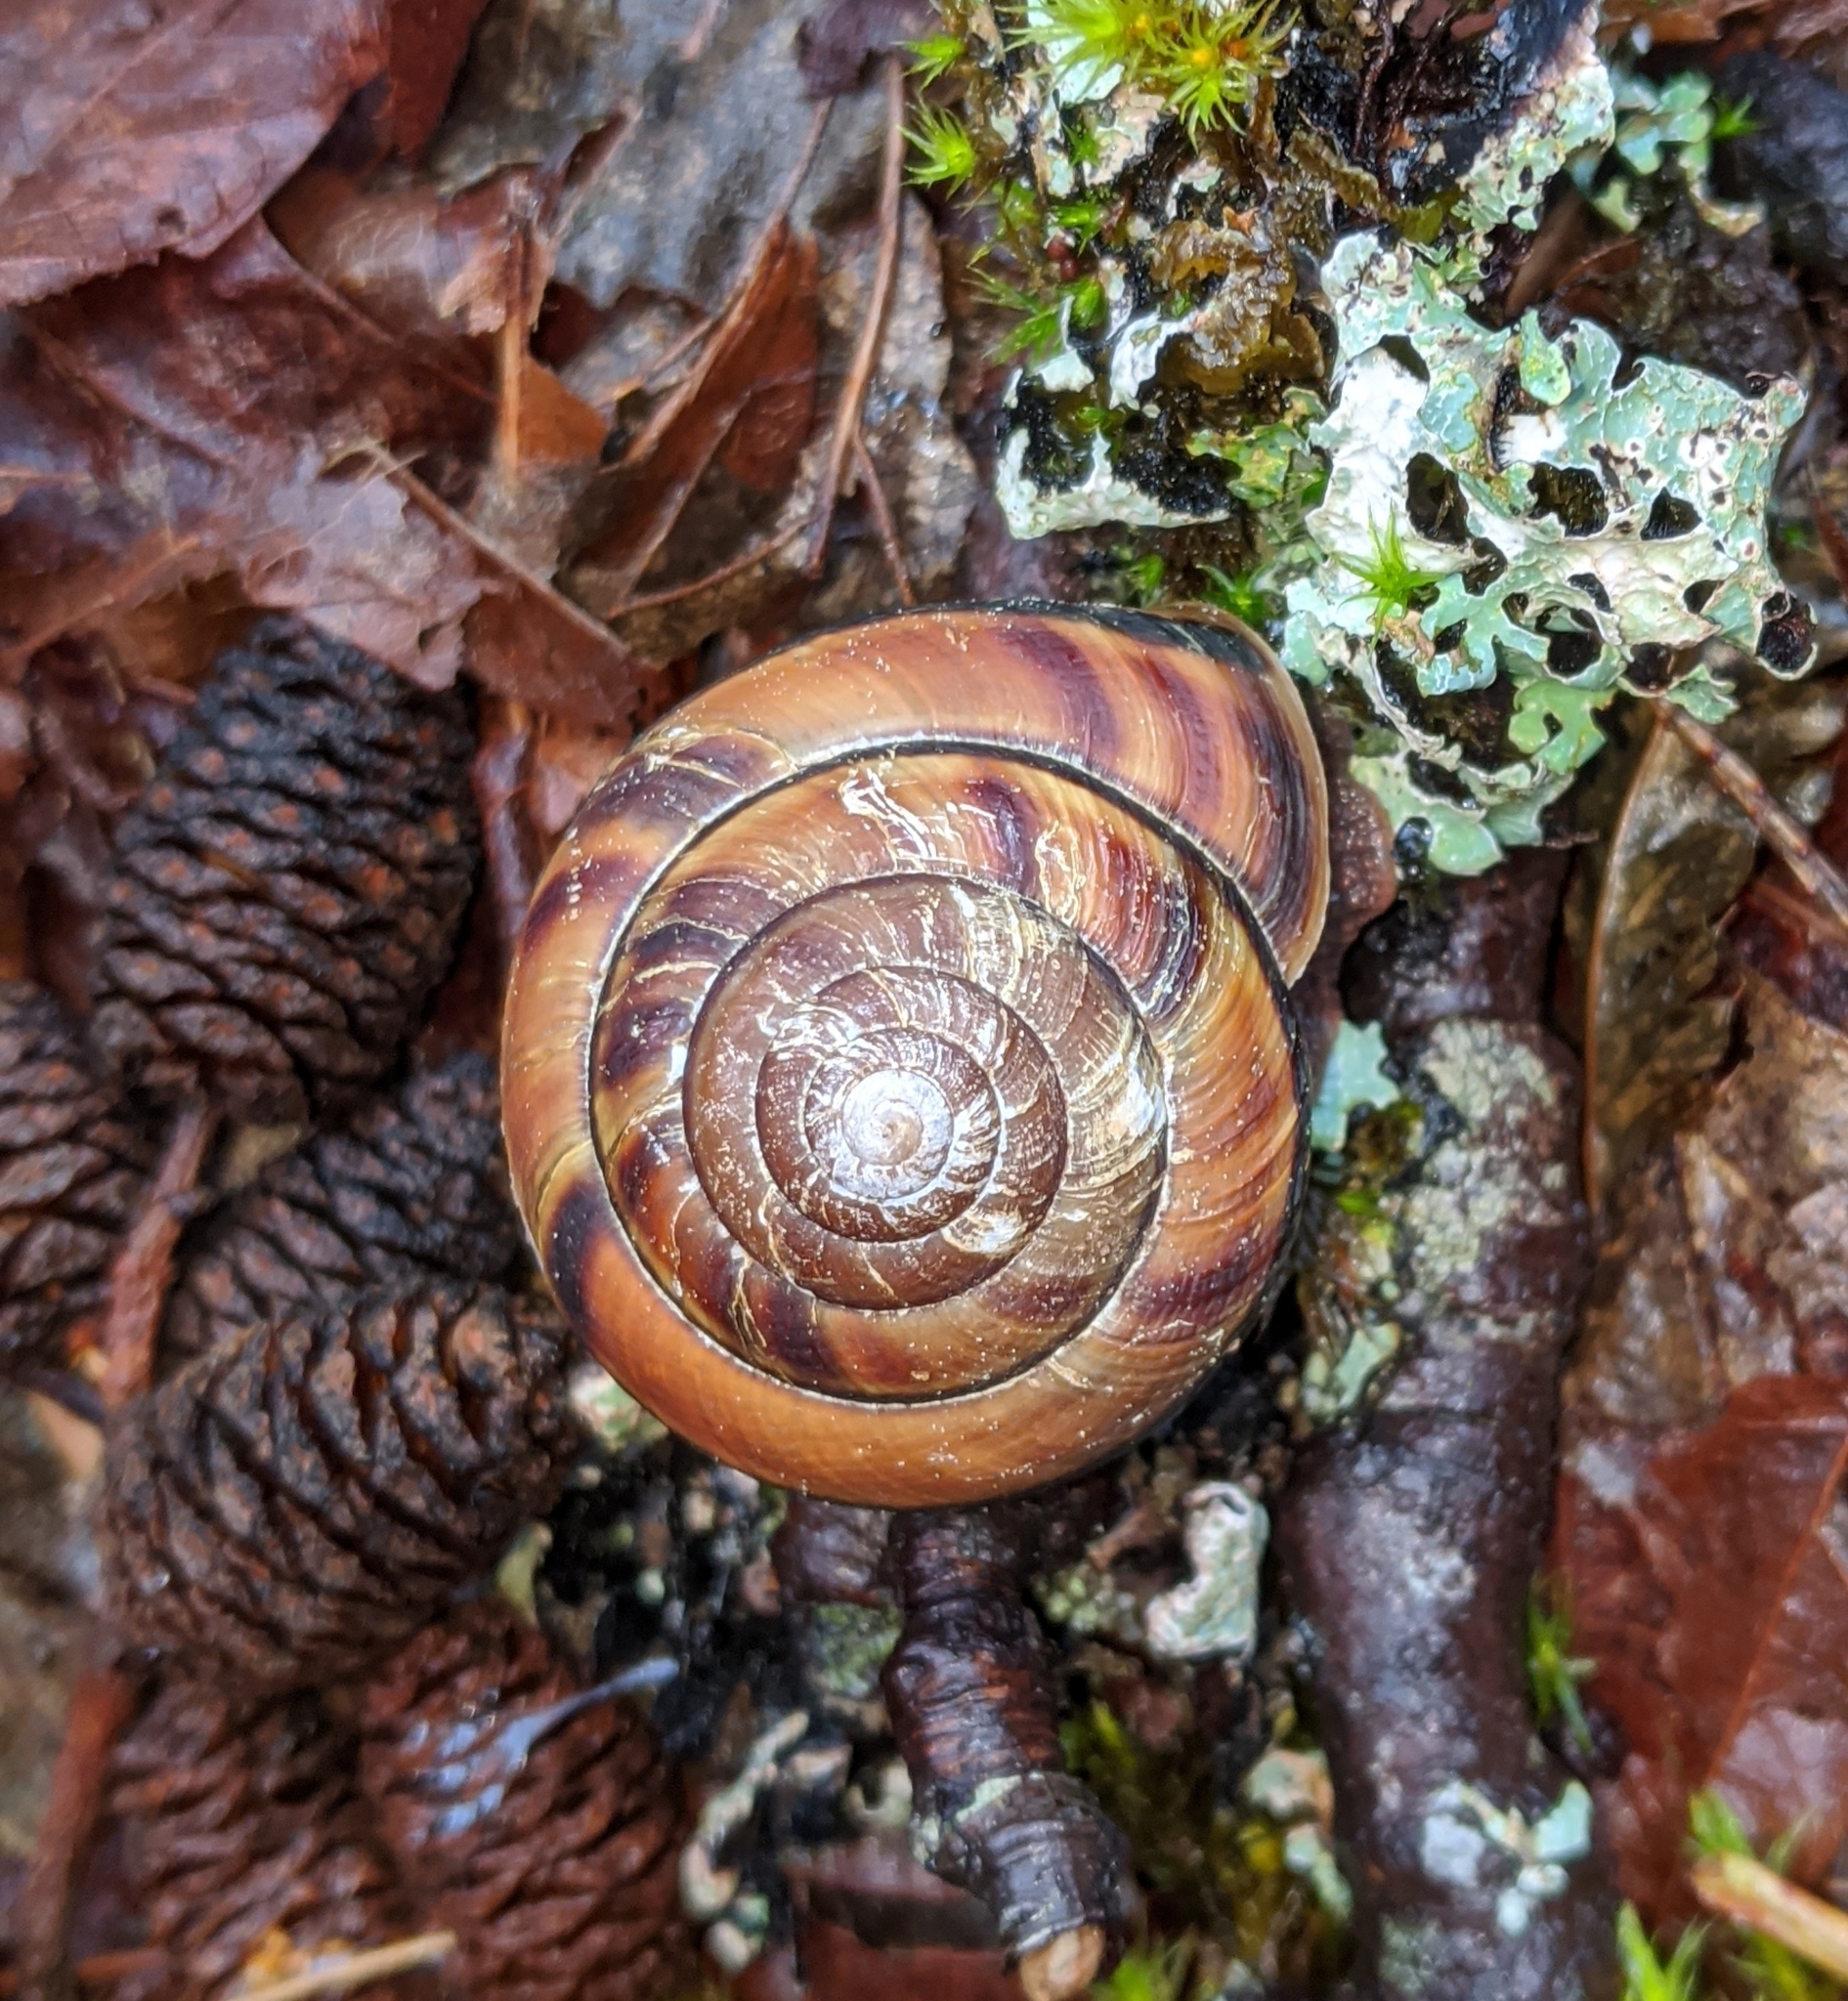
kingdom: Animalia
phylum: Mollusca
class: Gastropoda
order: Stylommatophora
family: Xanthonychidae
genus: Monadenia
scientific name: Monadenia fidelis
